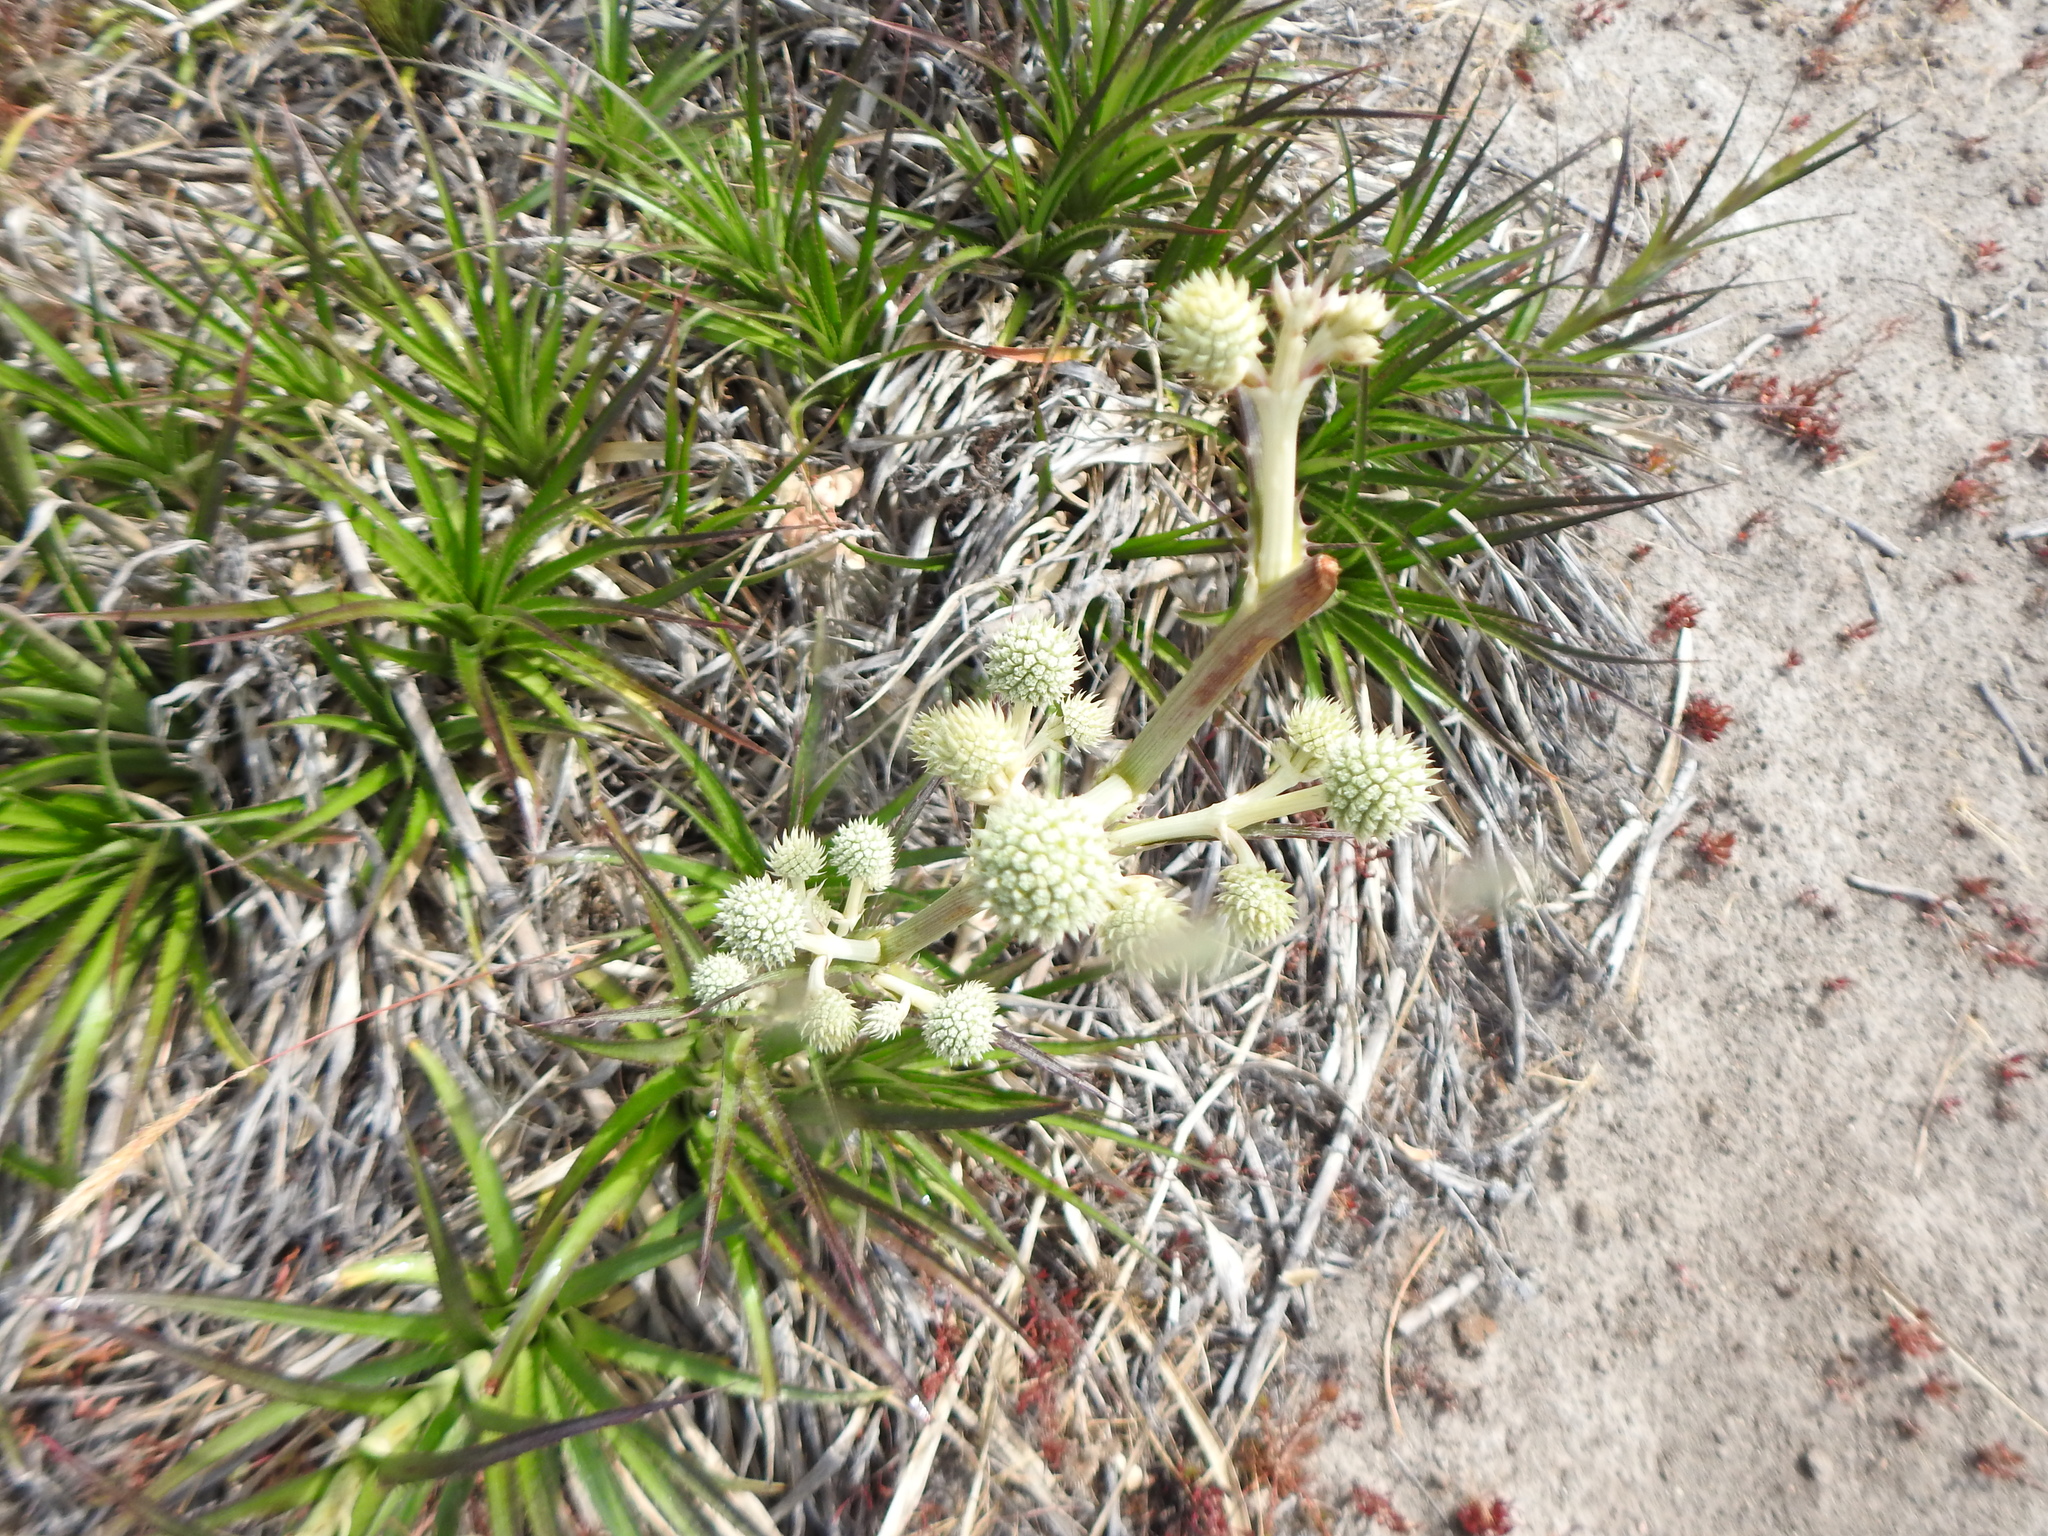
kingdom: Plantae
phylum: Tracheophyta
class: Magnoliopsida
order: Apiales
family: Apiaceae
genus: Eryngium
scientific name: Eryngium humboldtii
